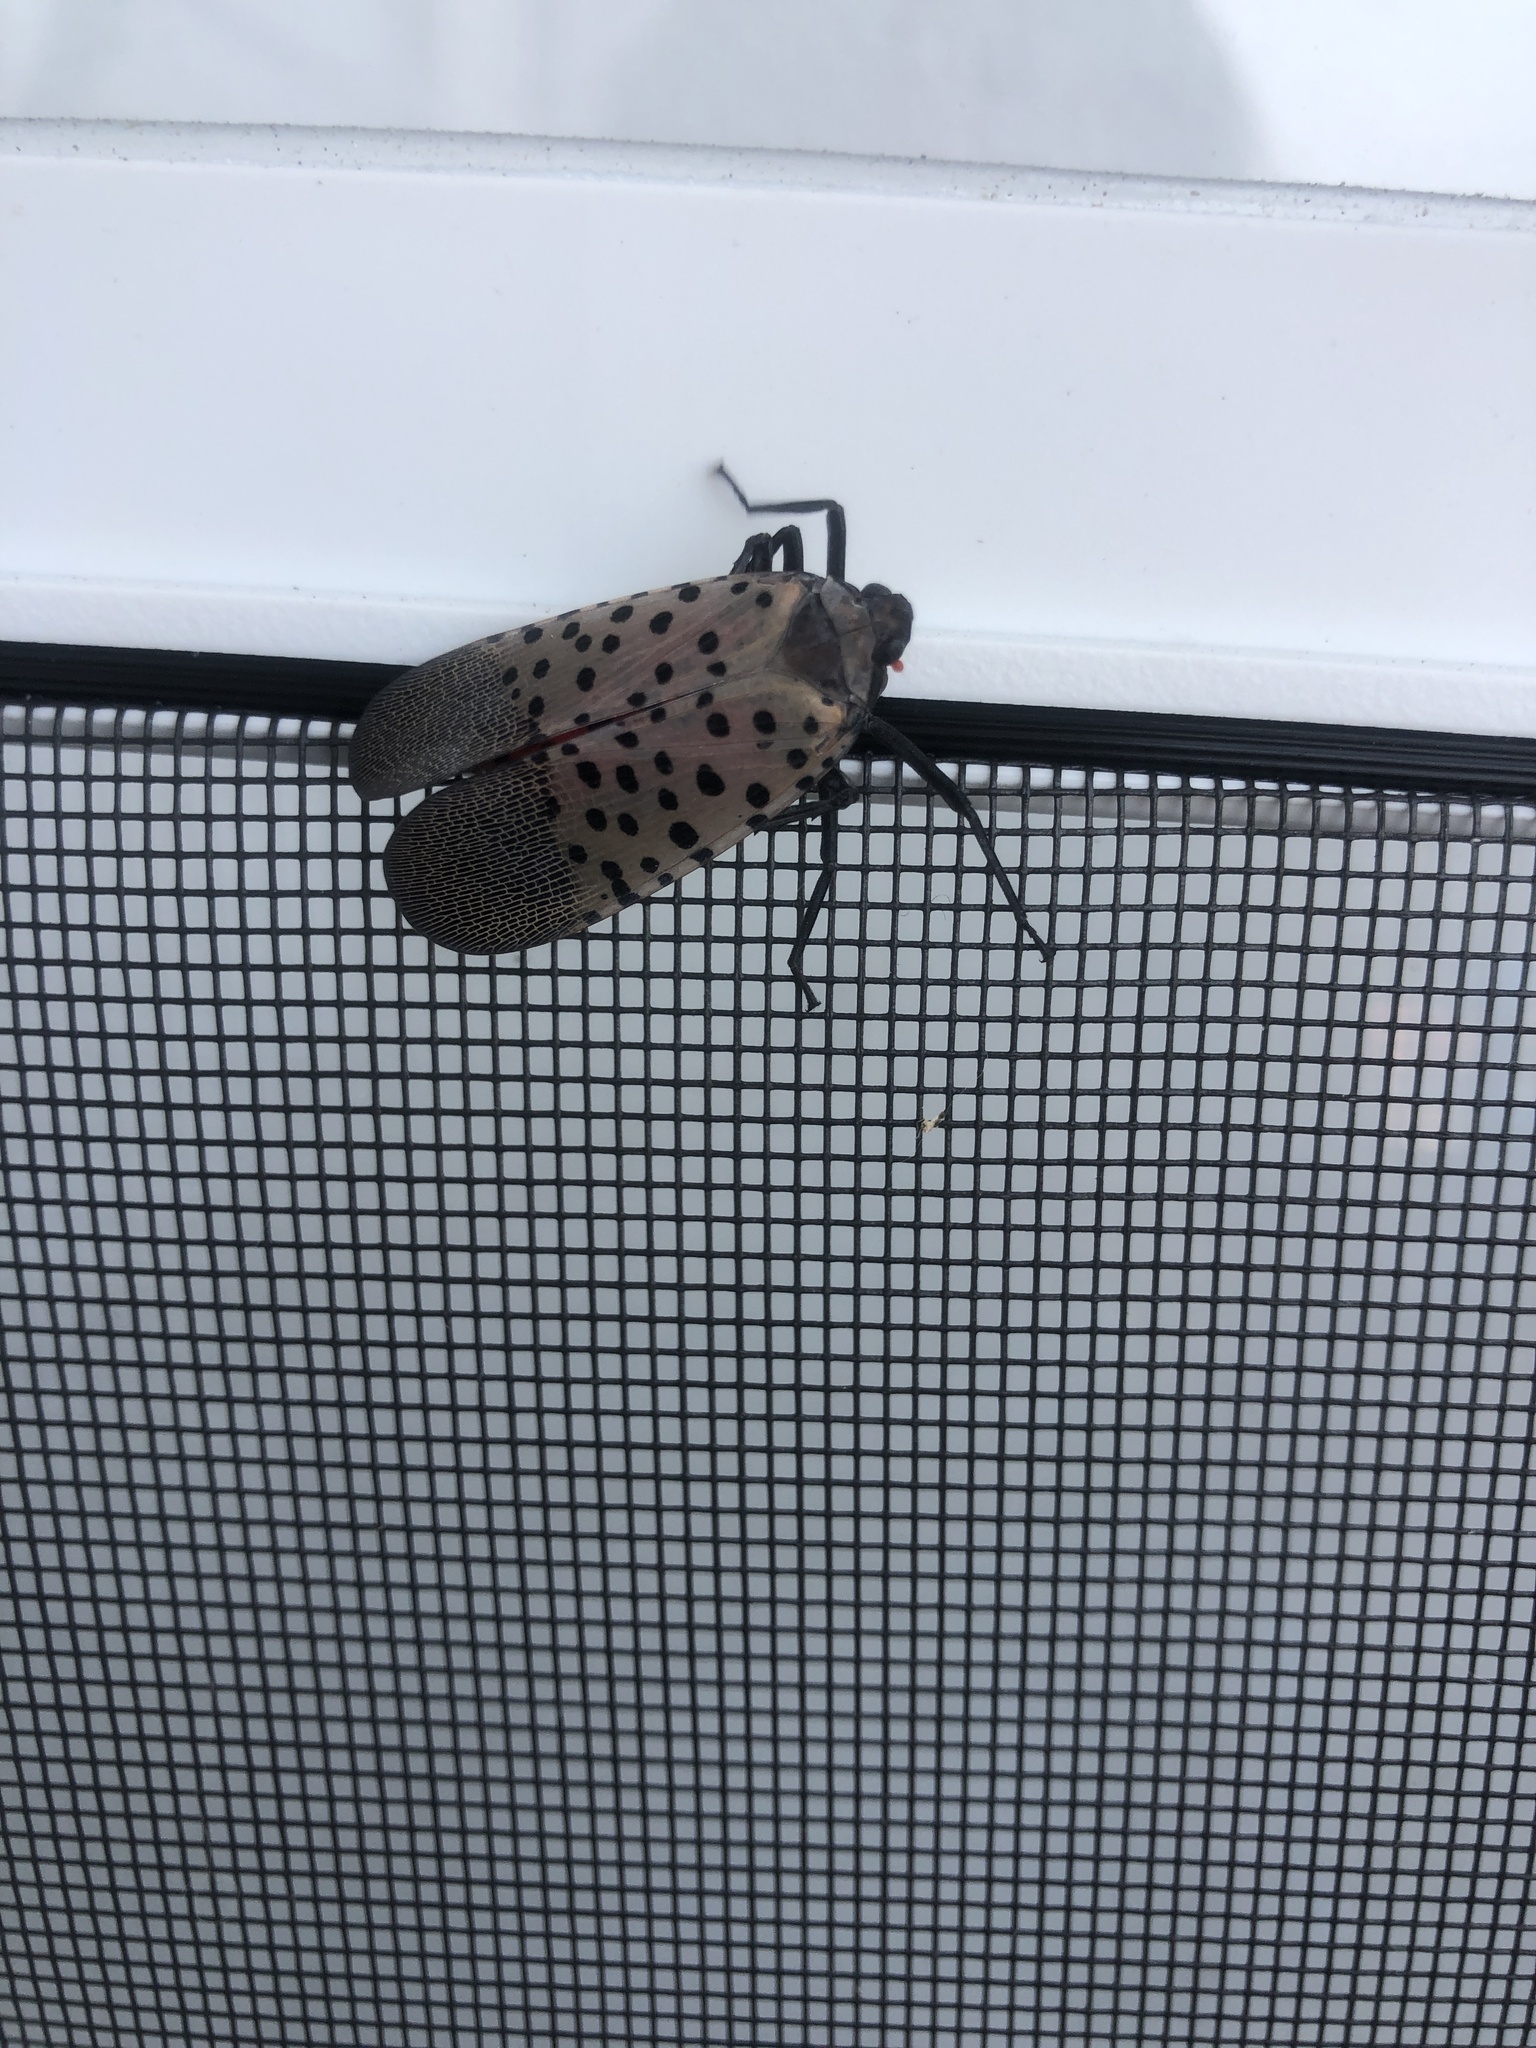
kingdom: Animalia
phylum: Arthropoda
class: Insecta
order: Hemiptera
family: Fulgoridae
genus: Lycorma
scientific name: Lycorma delicatula
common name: Spotted lanternfly
